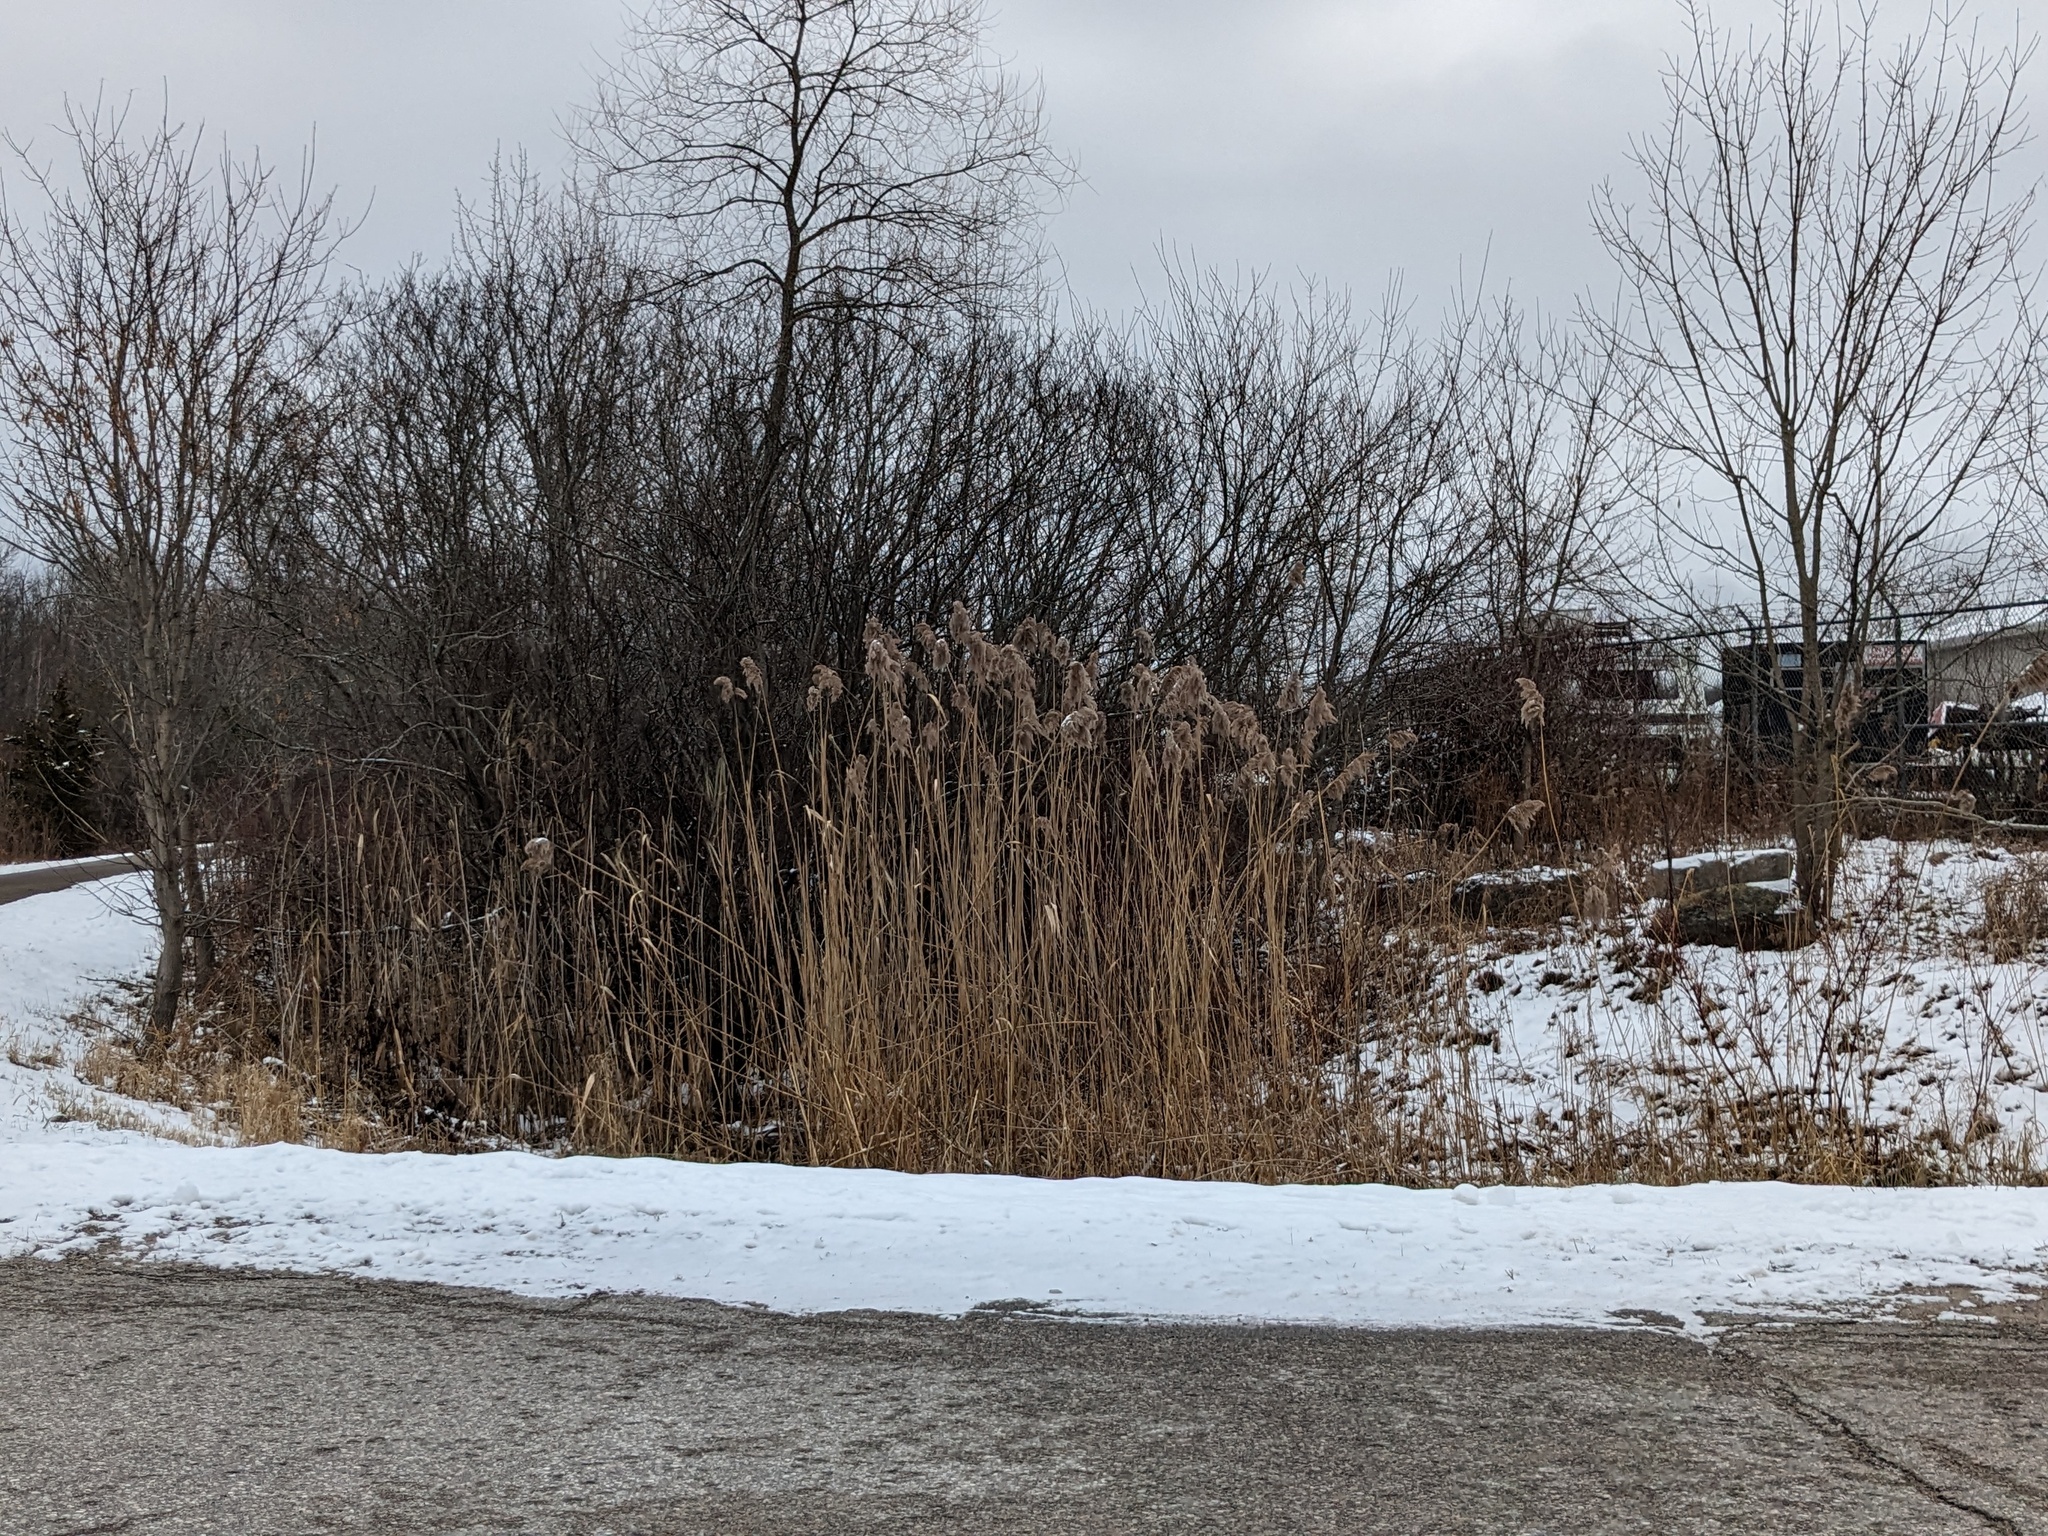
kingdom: Plantae
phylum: Tracheophyta
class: Liliopsida
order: Poales
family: Poaceae
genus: Phragmites
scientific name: Phragmites australis
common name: Common reed
